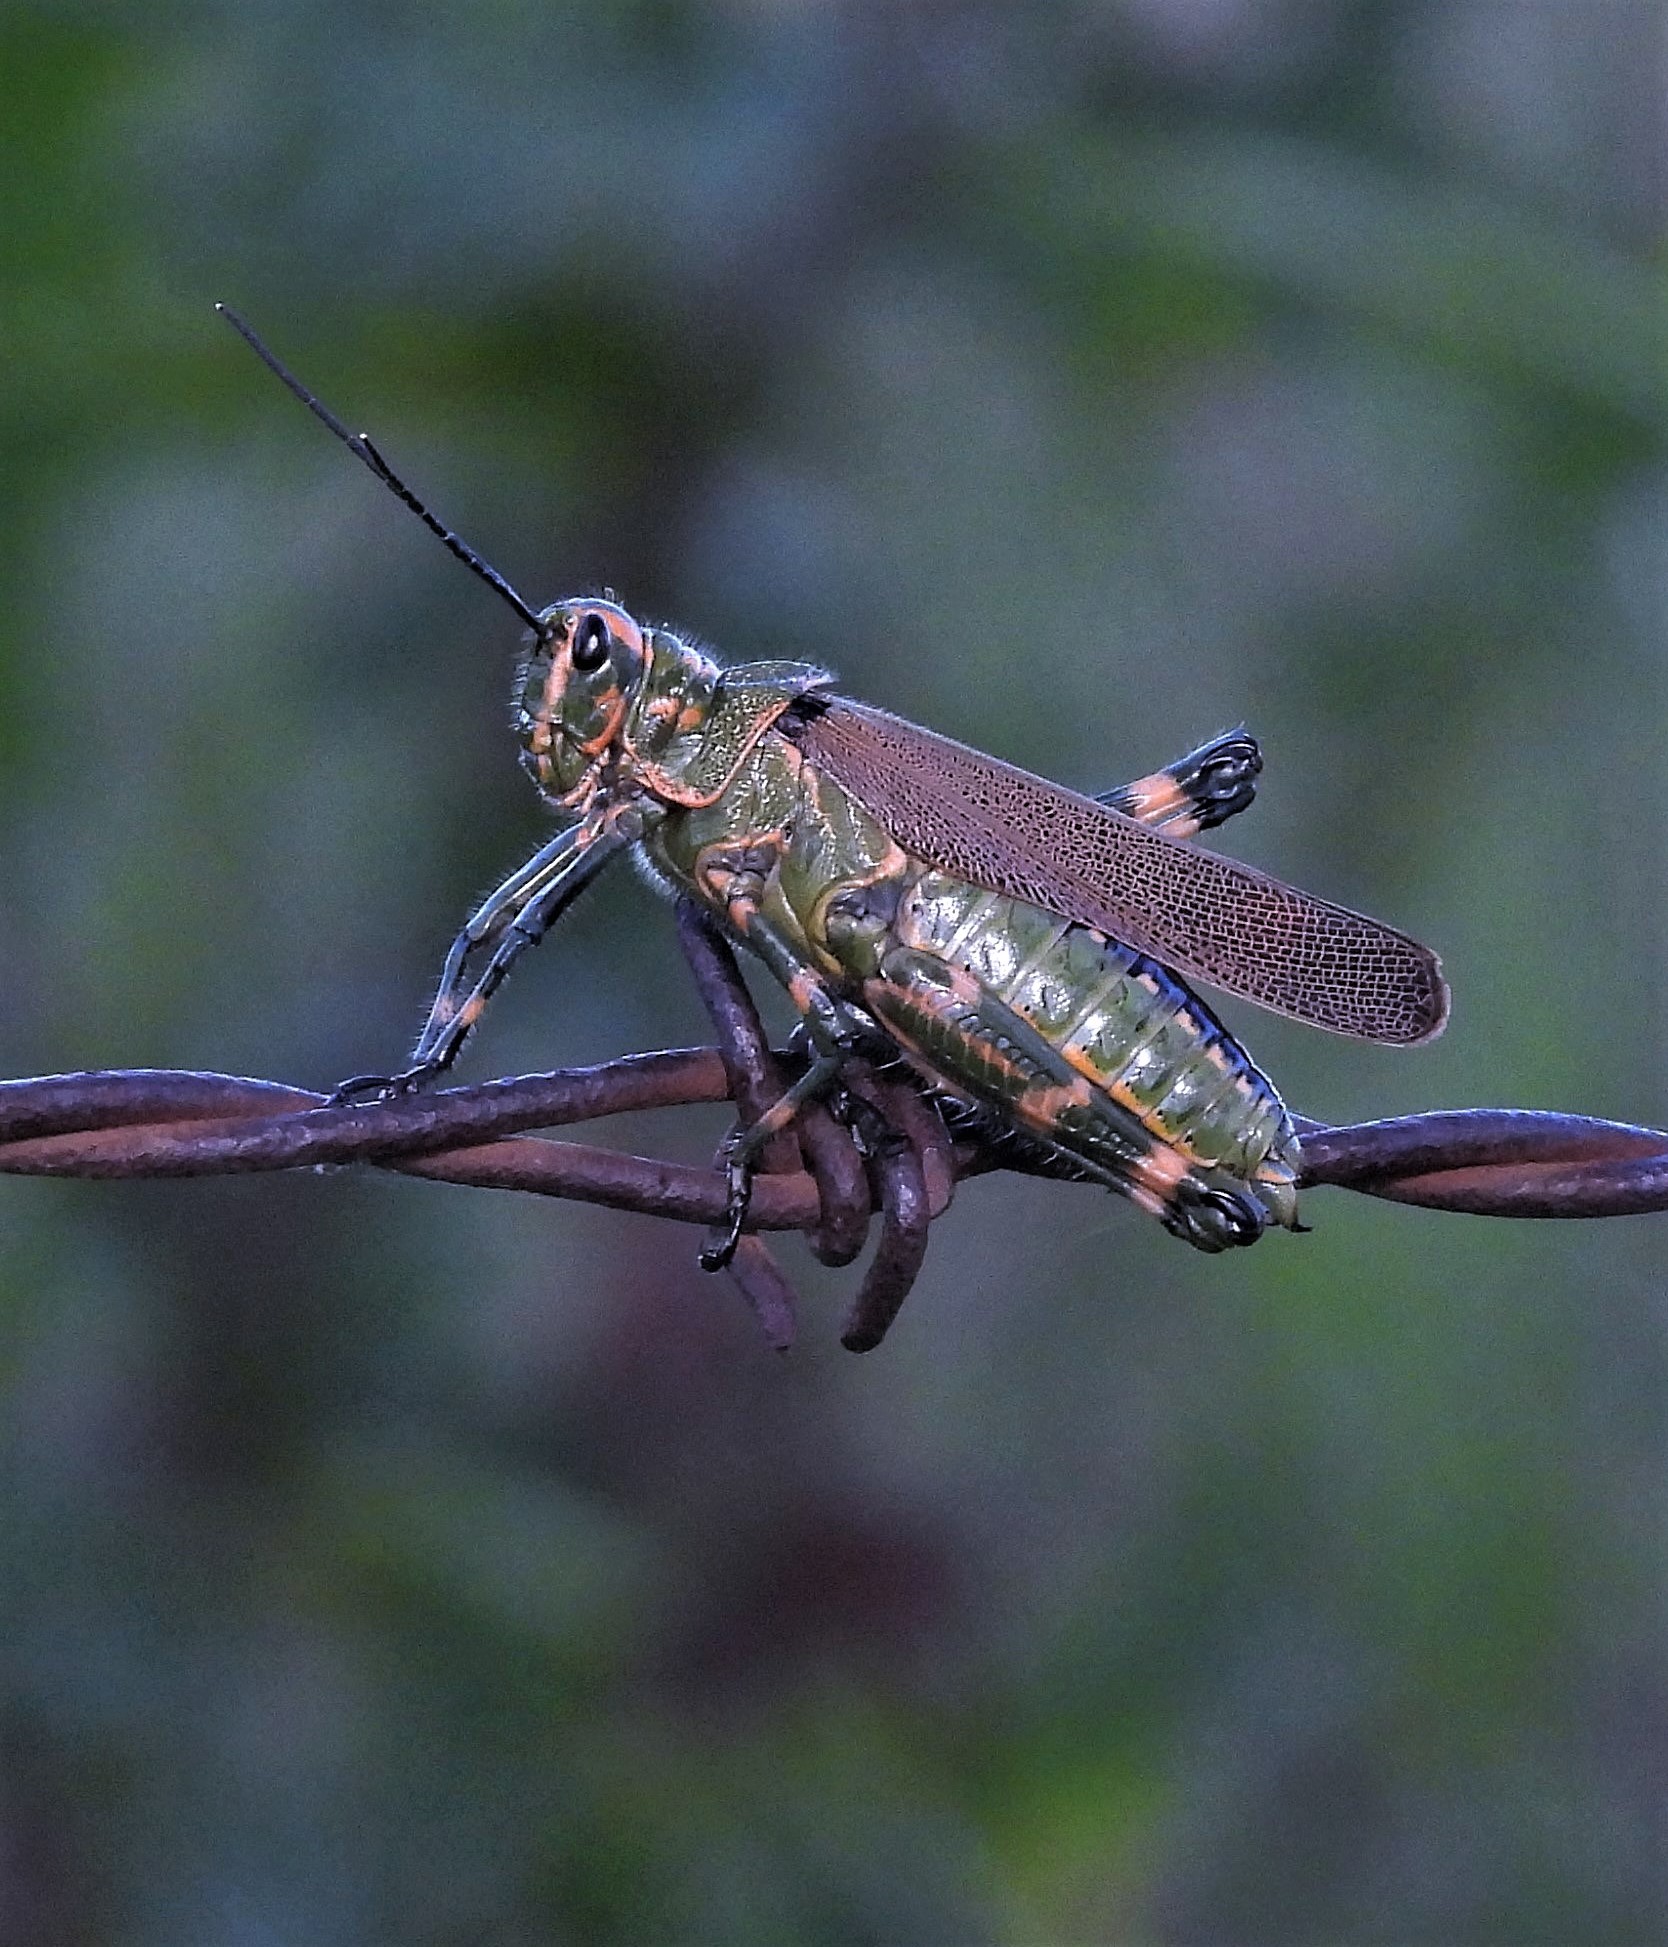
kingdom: Animalia
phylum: Arthropoda
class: Insecta
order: Orthoptera
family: Romaleidae
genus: Chromacris
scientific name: Chromacris speciosa
